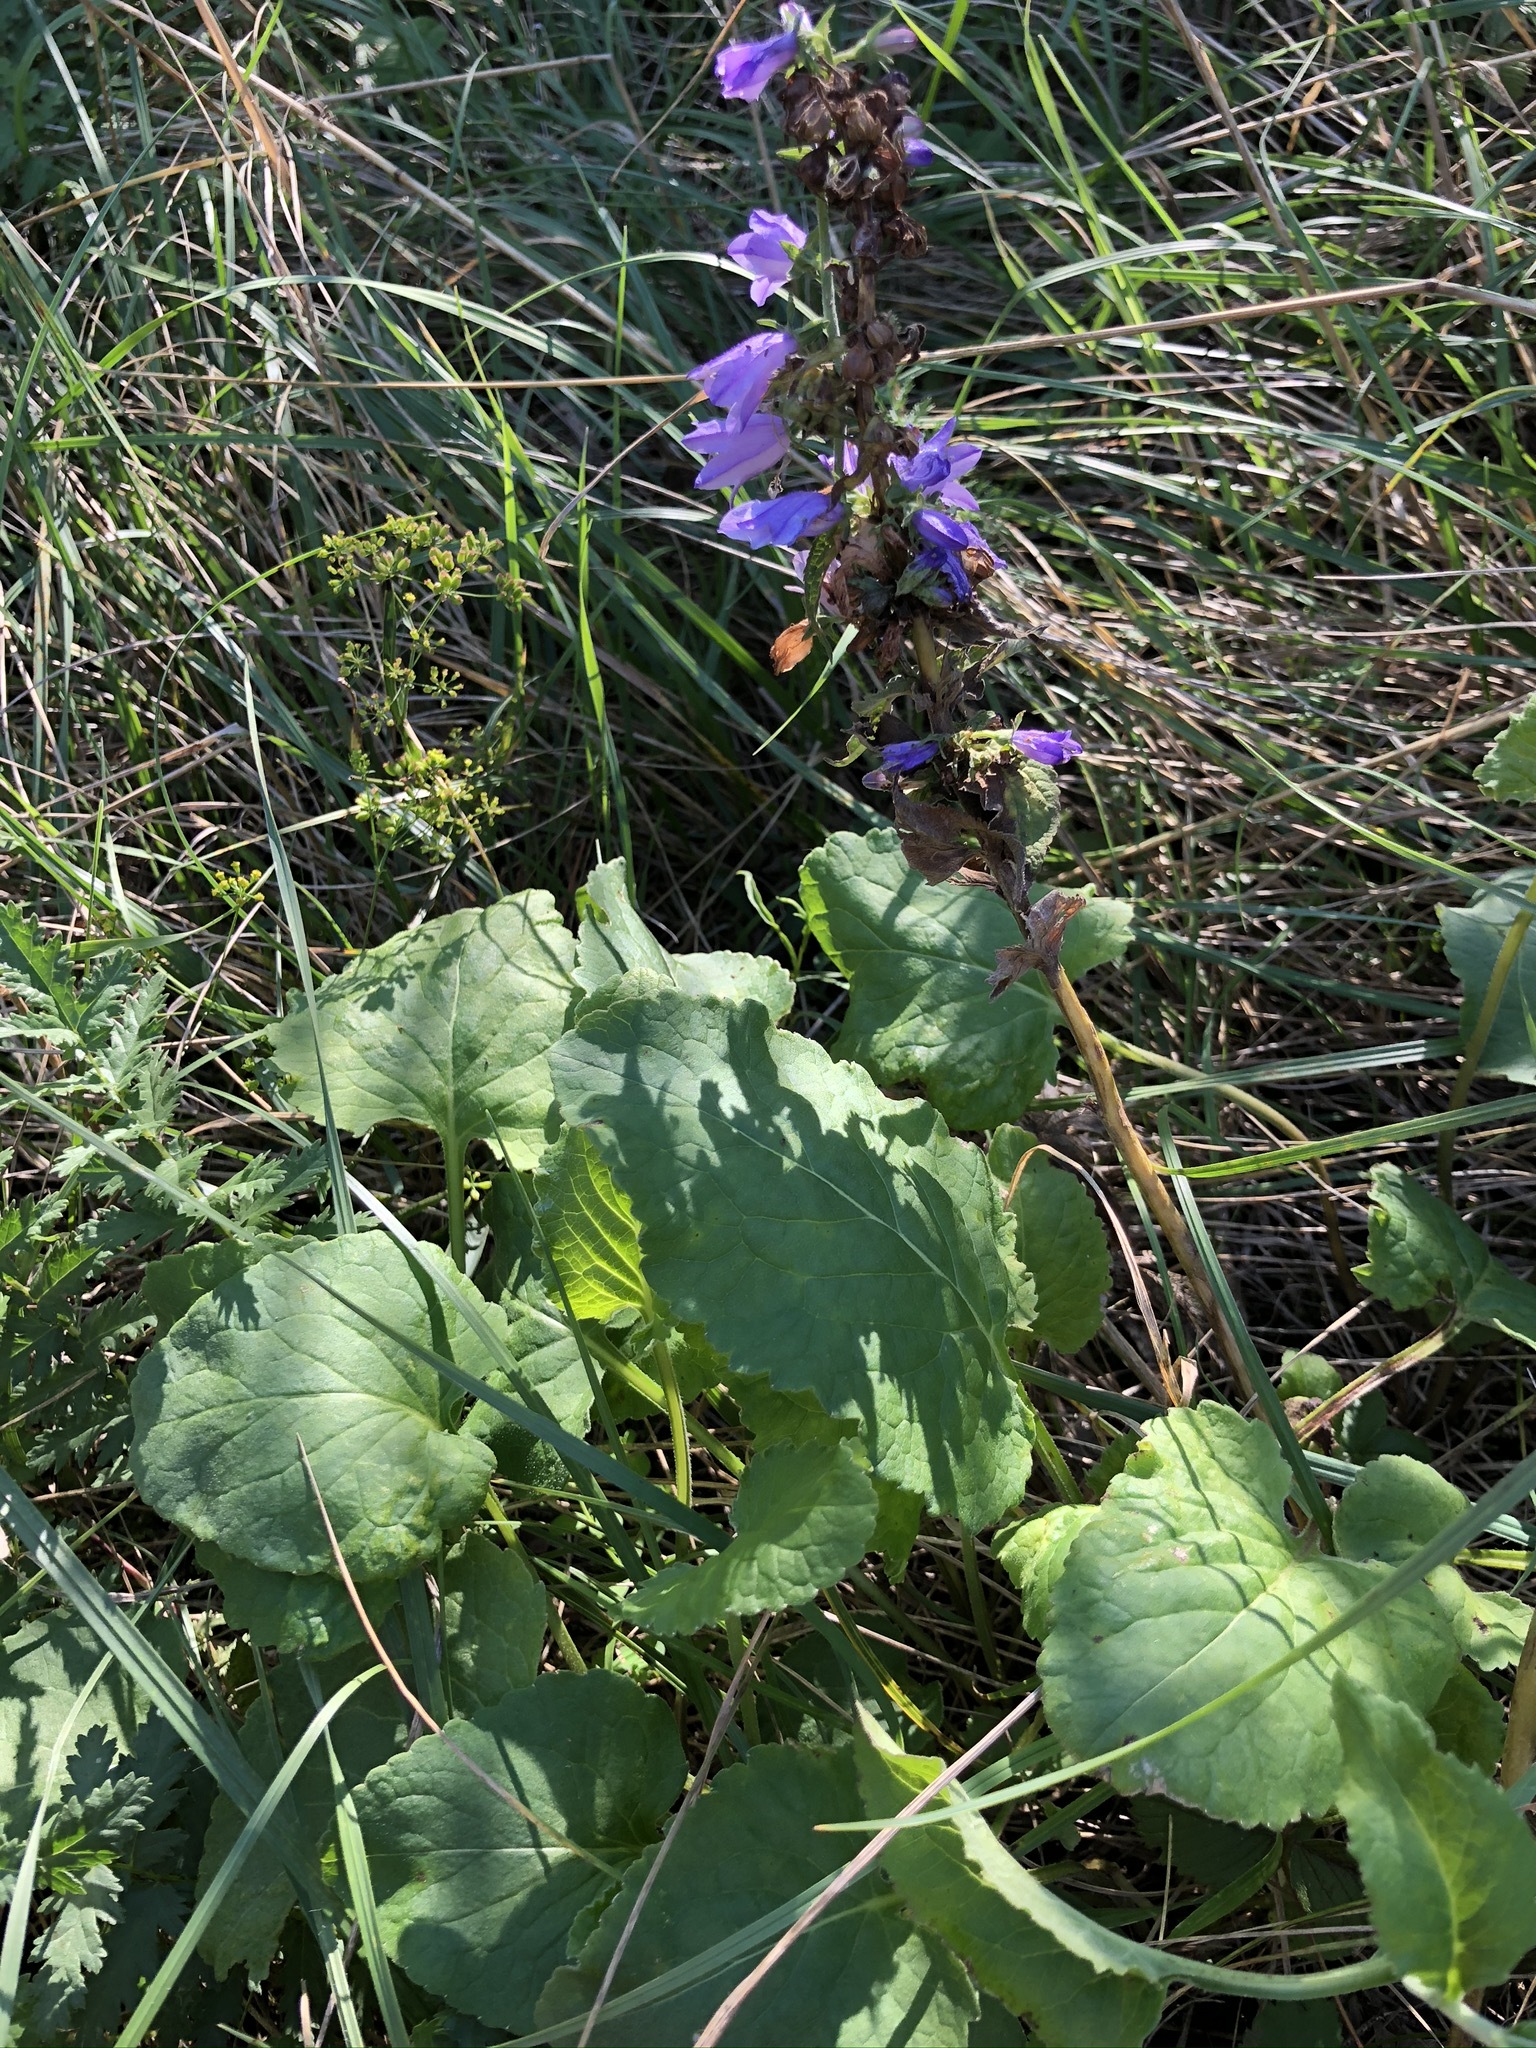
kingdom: Plantae
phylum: Tracheophyta
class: Magnoliopsida
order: Asterales
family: Campanulaceae
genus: Campanula
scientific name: Campanula glomerata
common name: Clustered bellflower
